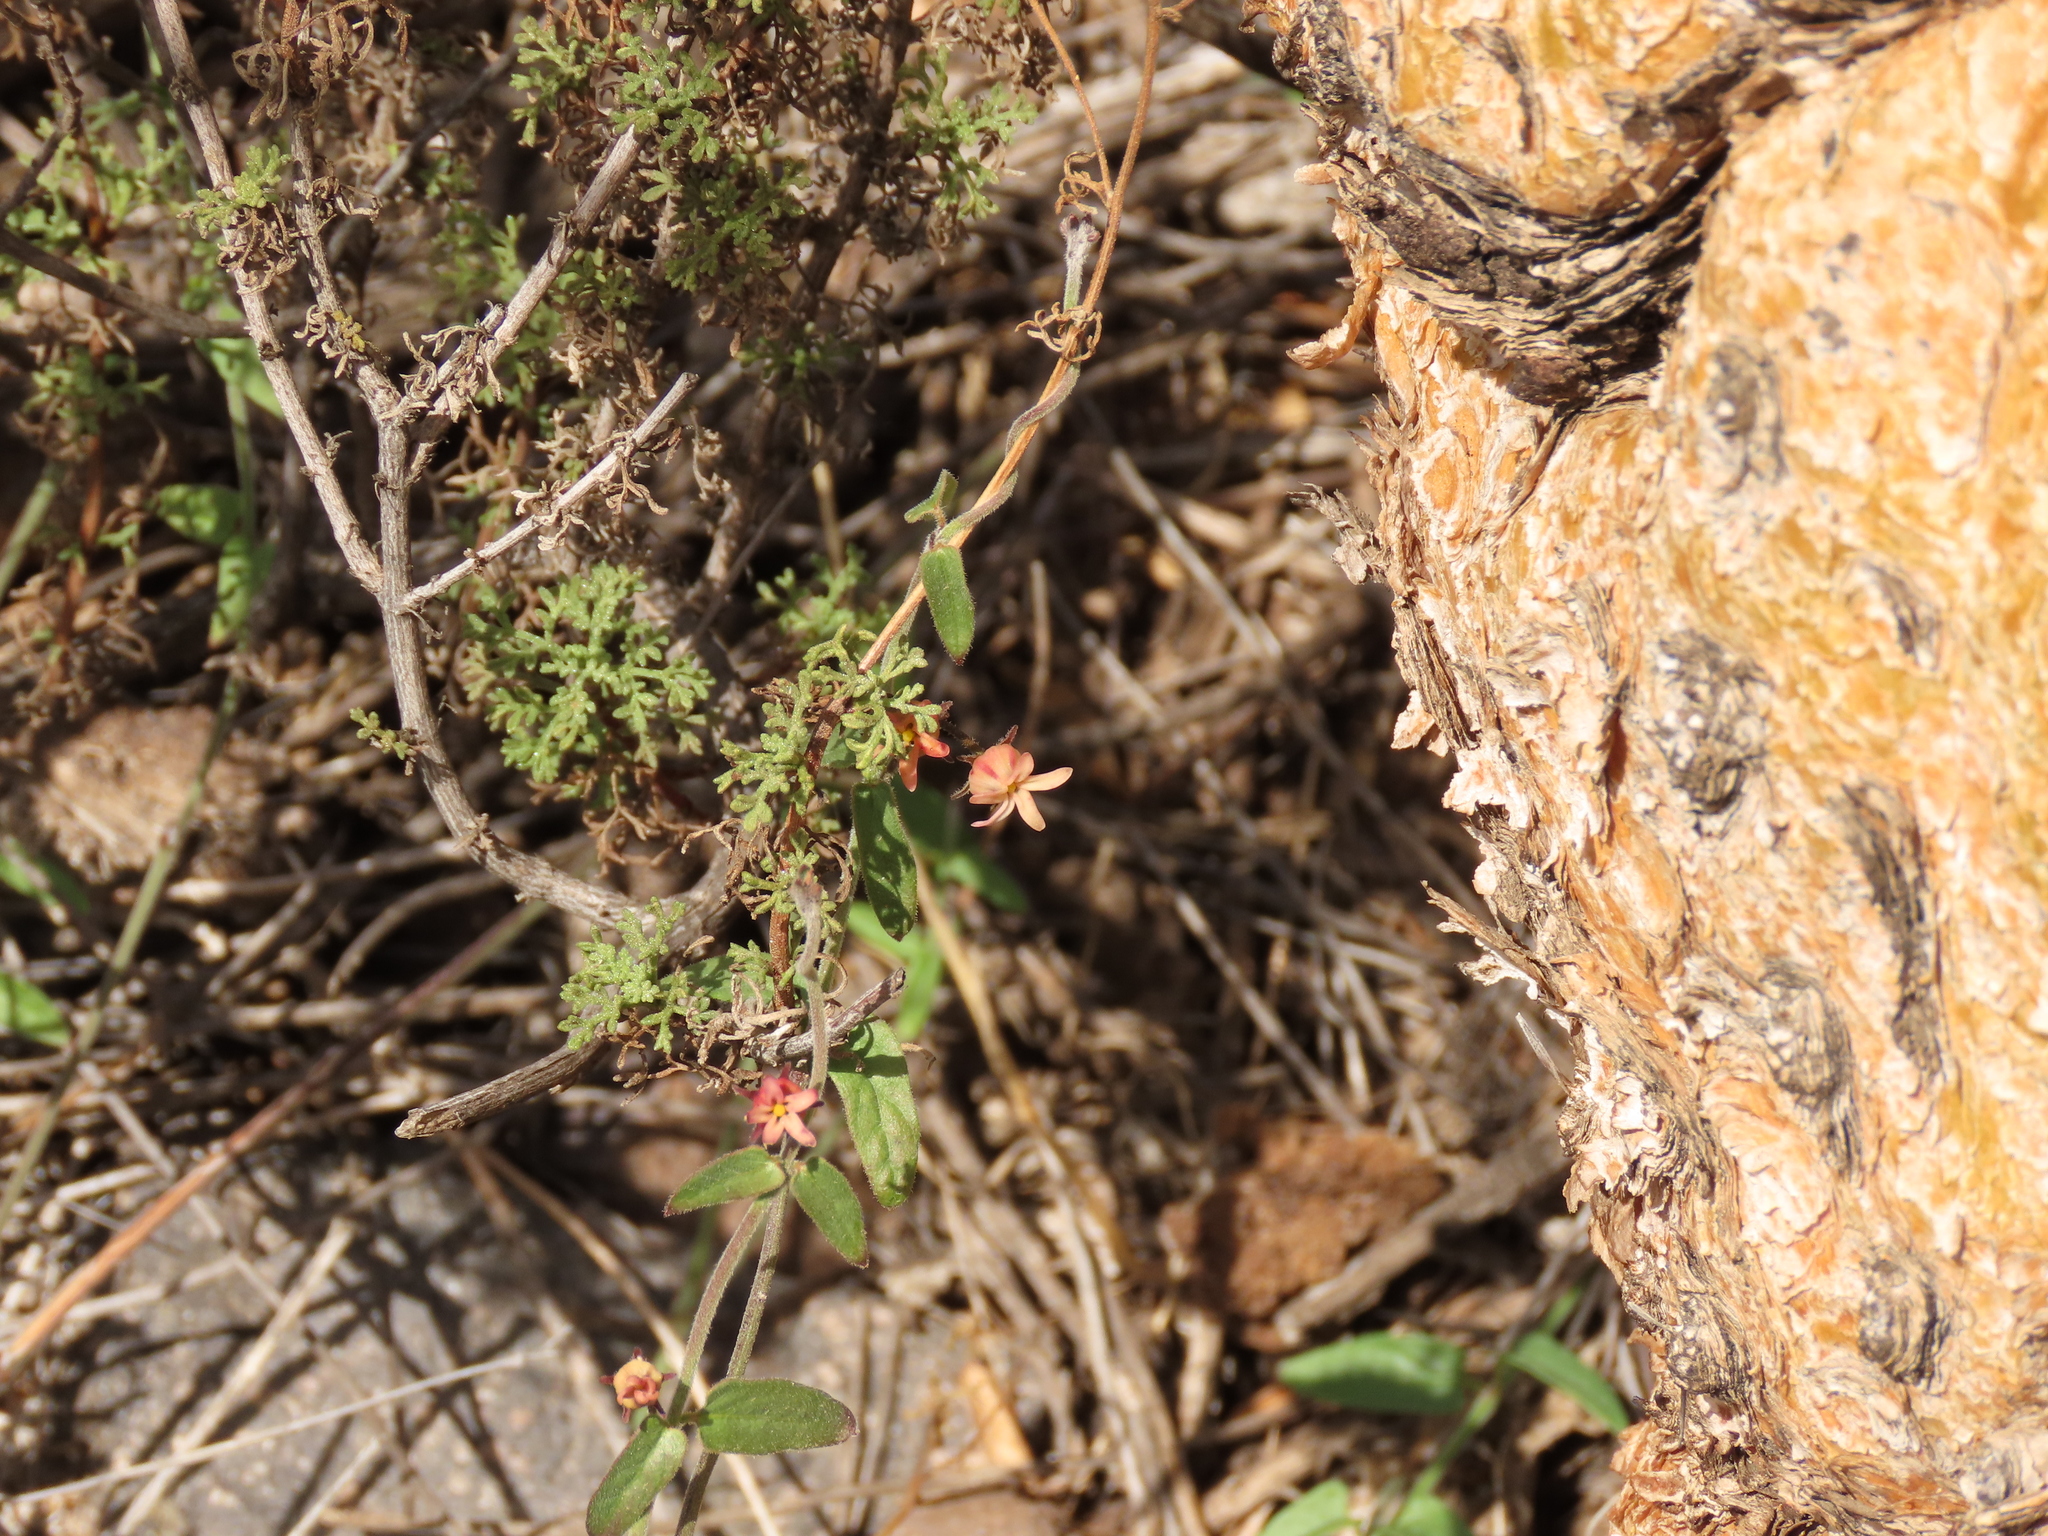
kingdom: Plantae
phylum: Tracheophyta
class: Magnoliopsida
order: Gentianales
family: Apocynaceae
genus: Diplolepis
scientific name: Diplolepis geminiflora
